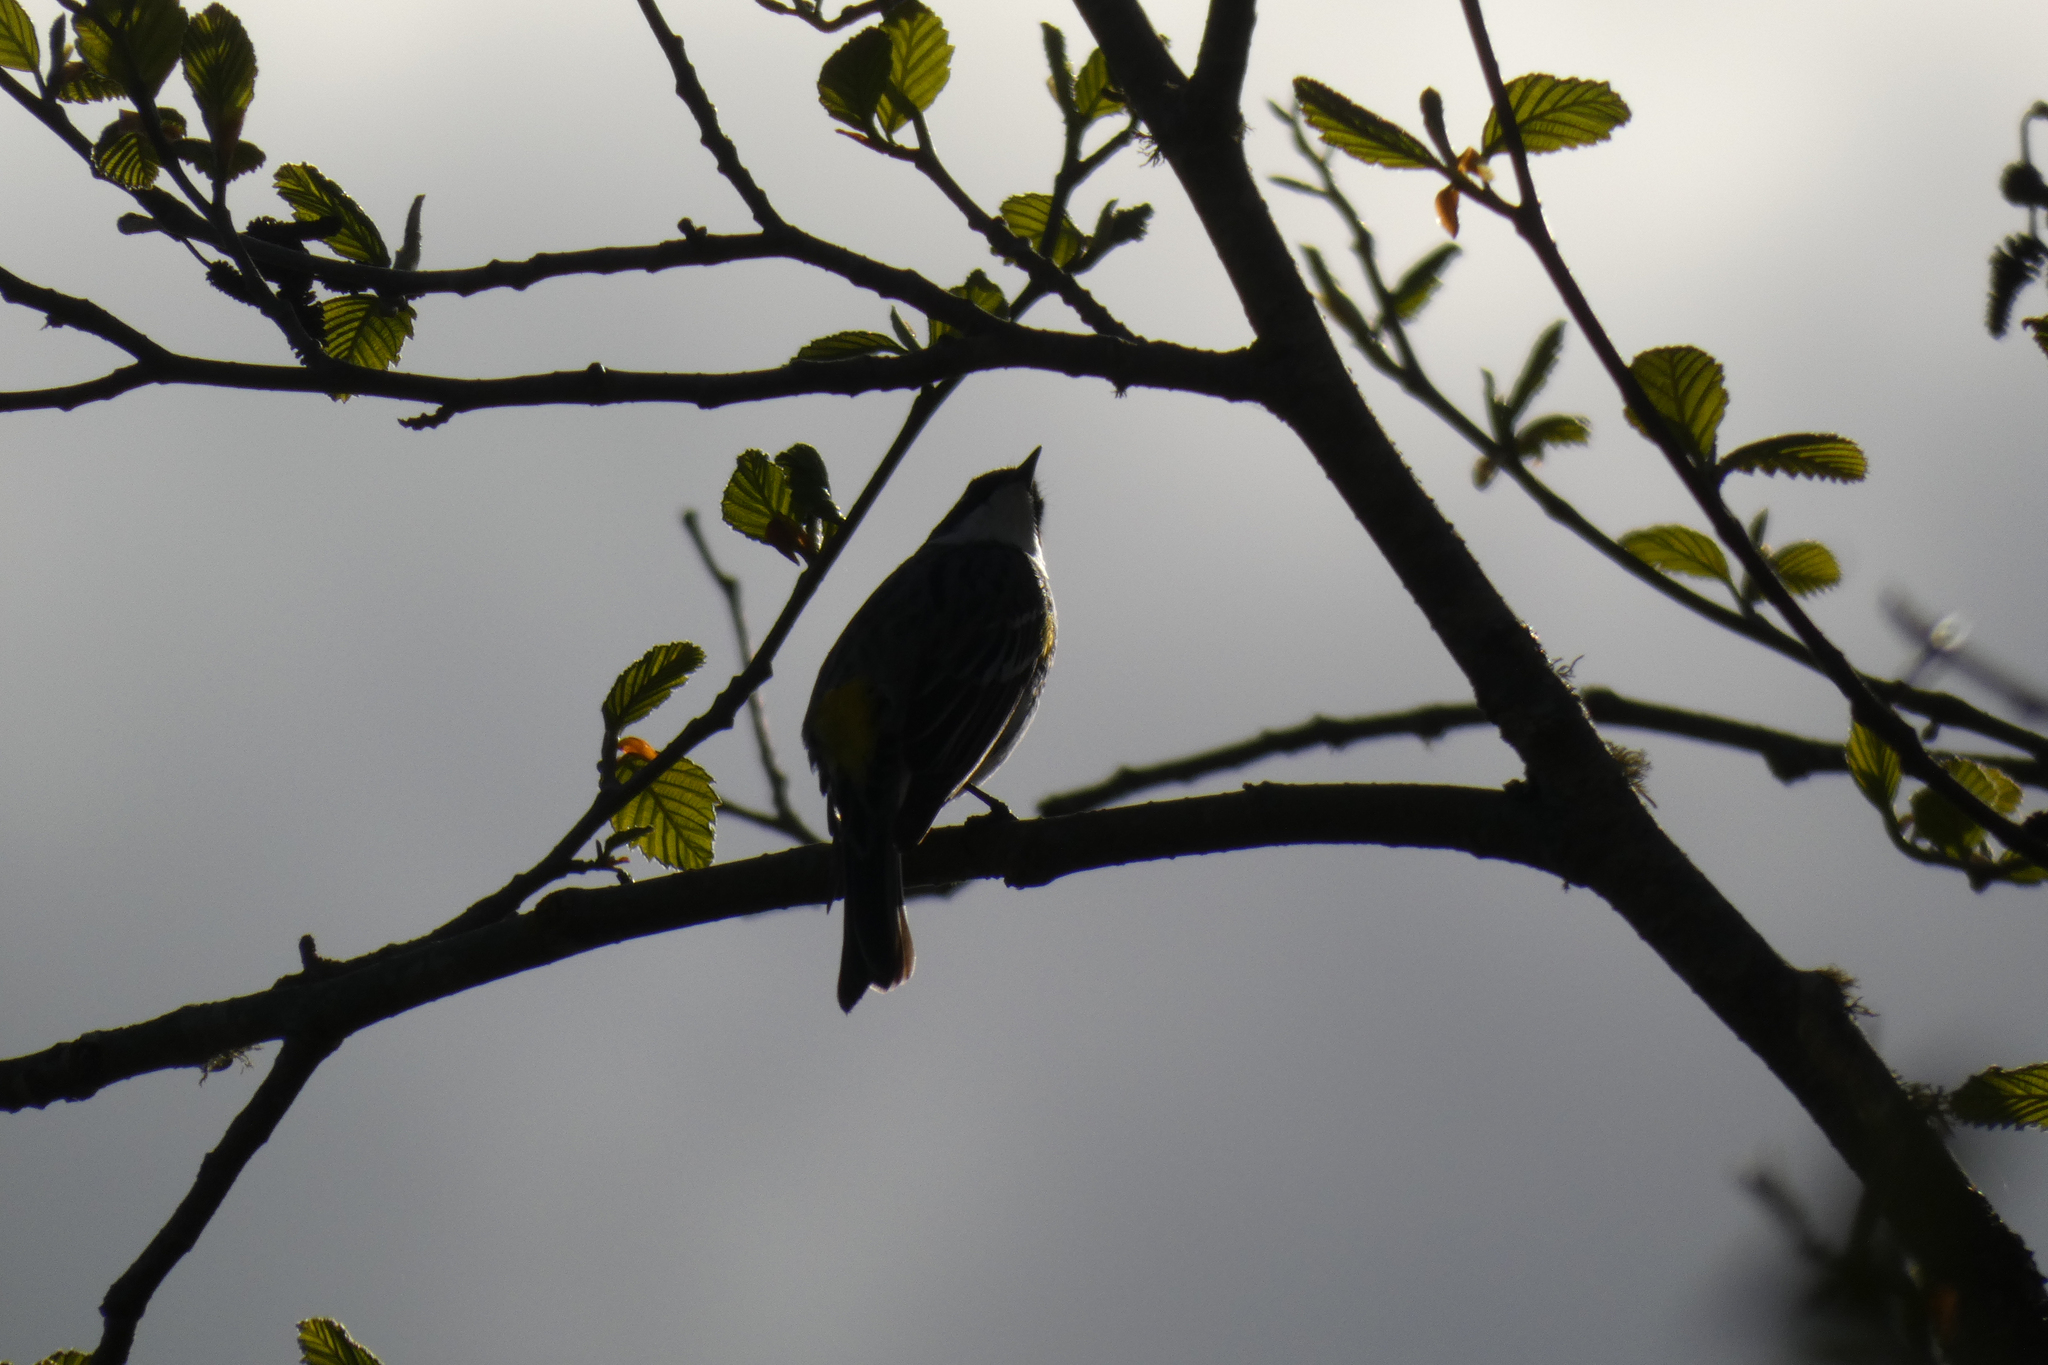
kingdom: Animalia
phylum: Chordata
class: Aves
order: Passeriformes
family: Parulidae
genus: Setophaga
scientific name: Setophaga coronata
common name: Myrtle warbler
